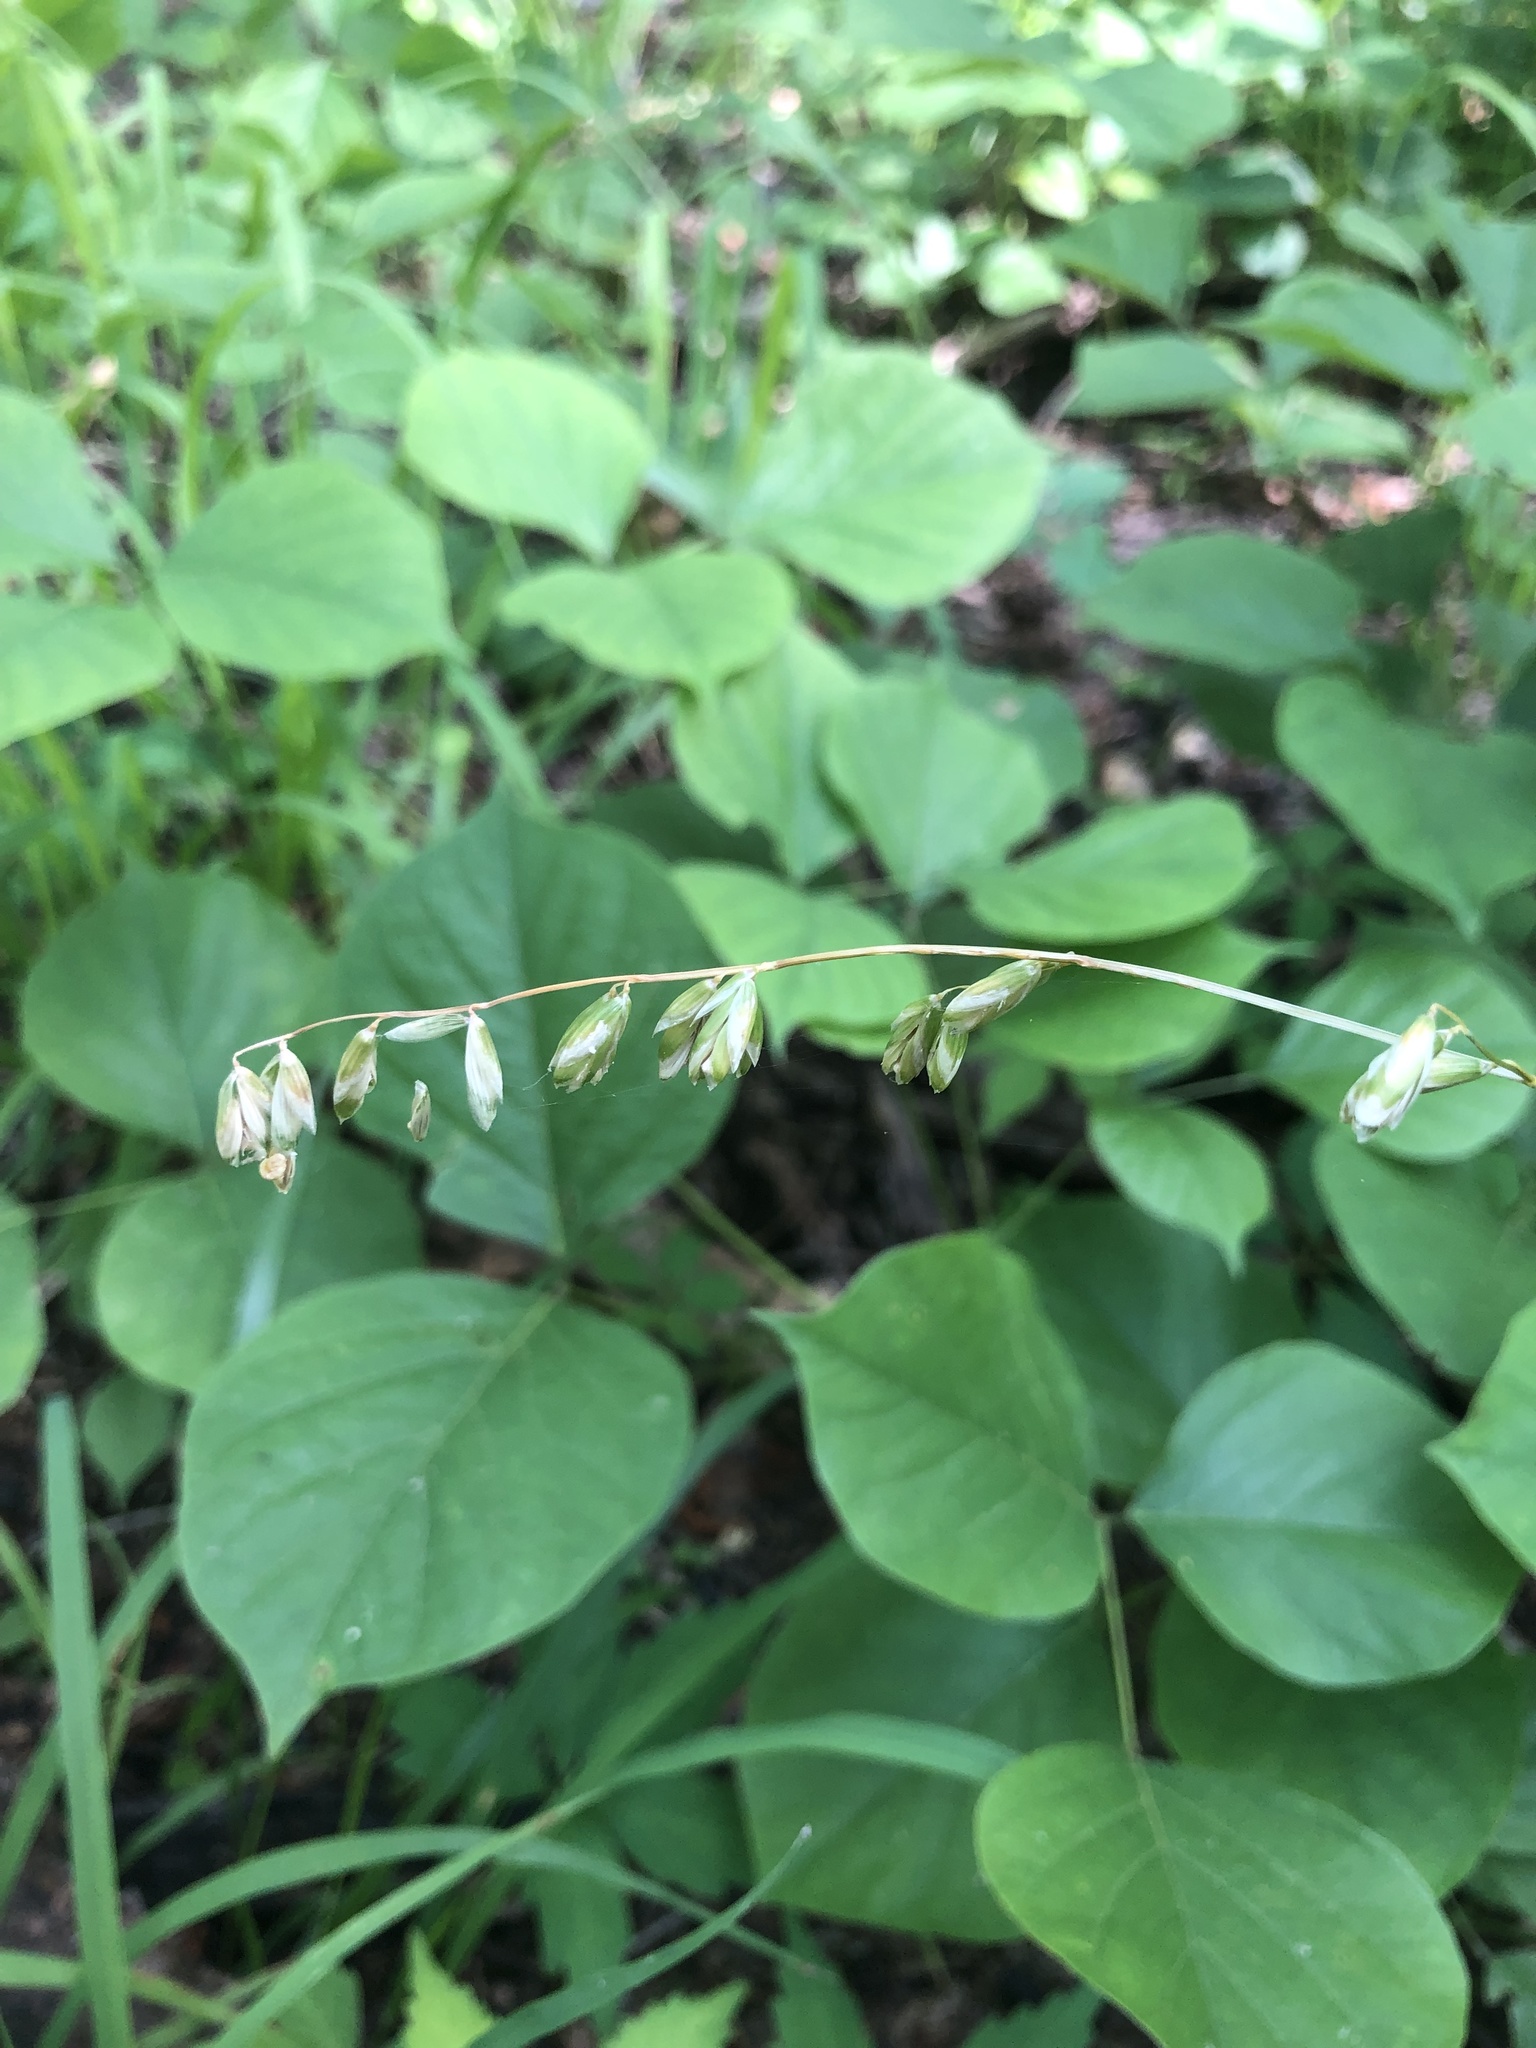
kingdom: Plantae
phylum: Tracheophyta
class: Liliopsida
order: Poales
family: Poaceae
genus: Melica
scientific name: Melica mutica
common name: Two-flower melic
